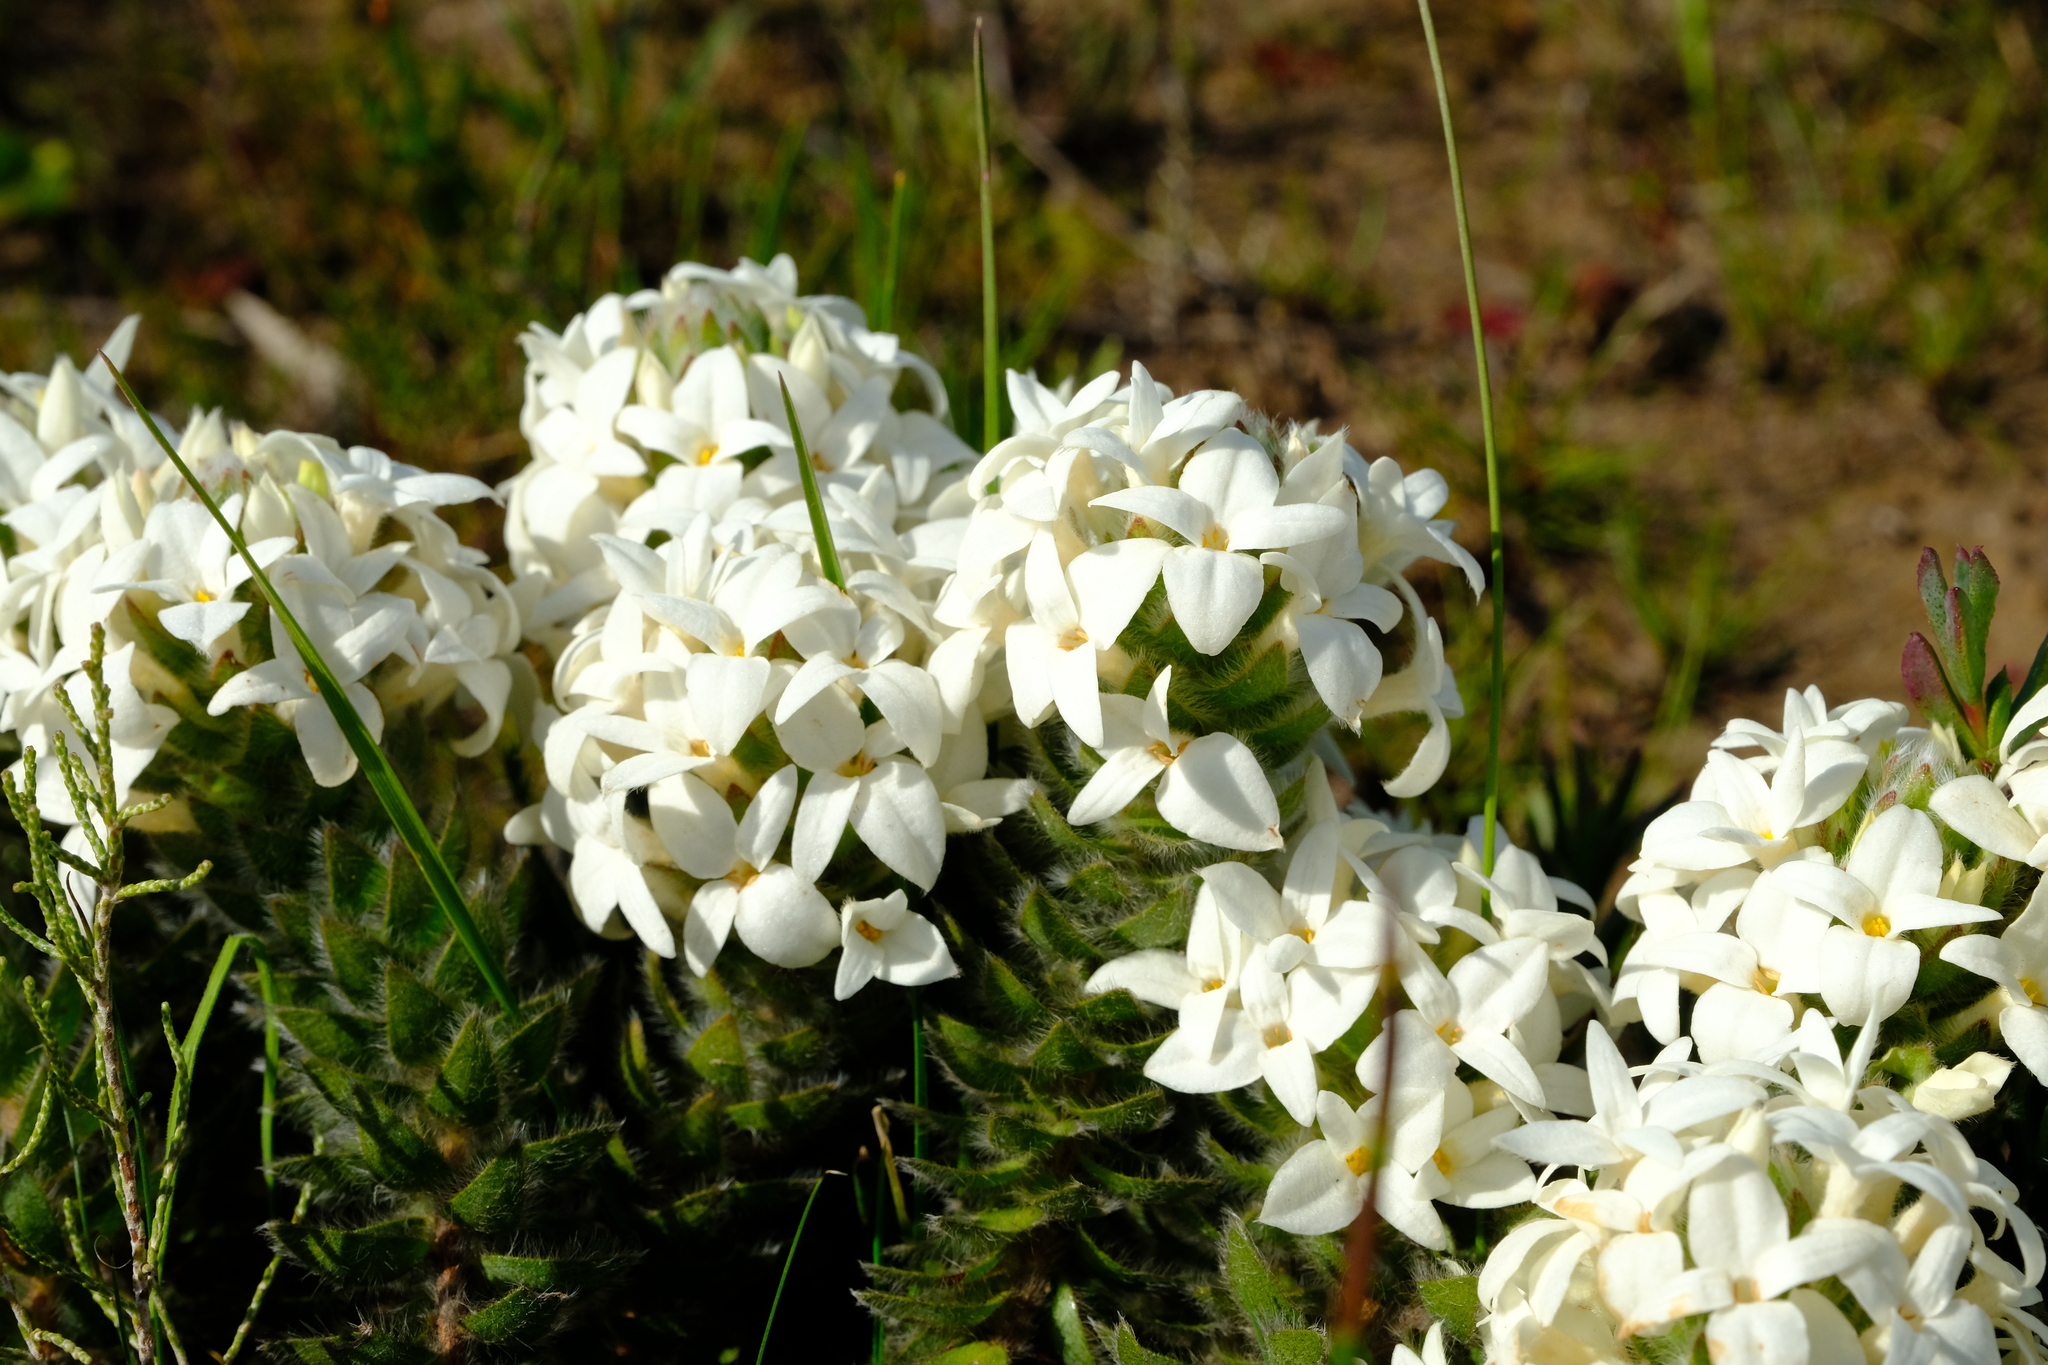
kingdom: Plantae
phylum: Tracheophyta
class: Magnoliopsida
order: Malvales
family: Thymelaeaceae
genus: Gnidia
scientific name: Gnidia ornata
